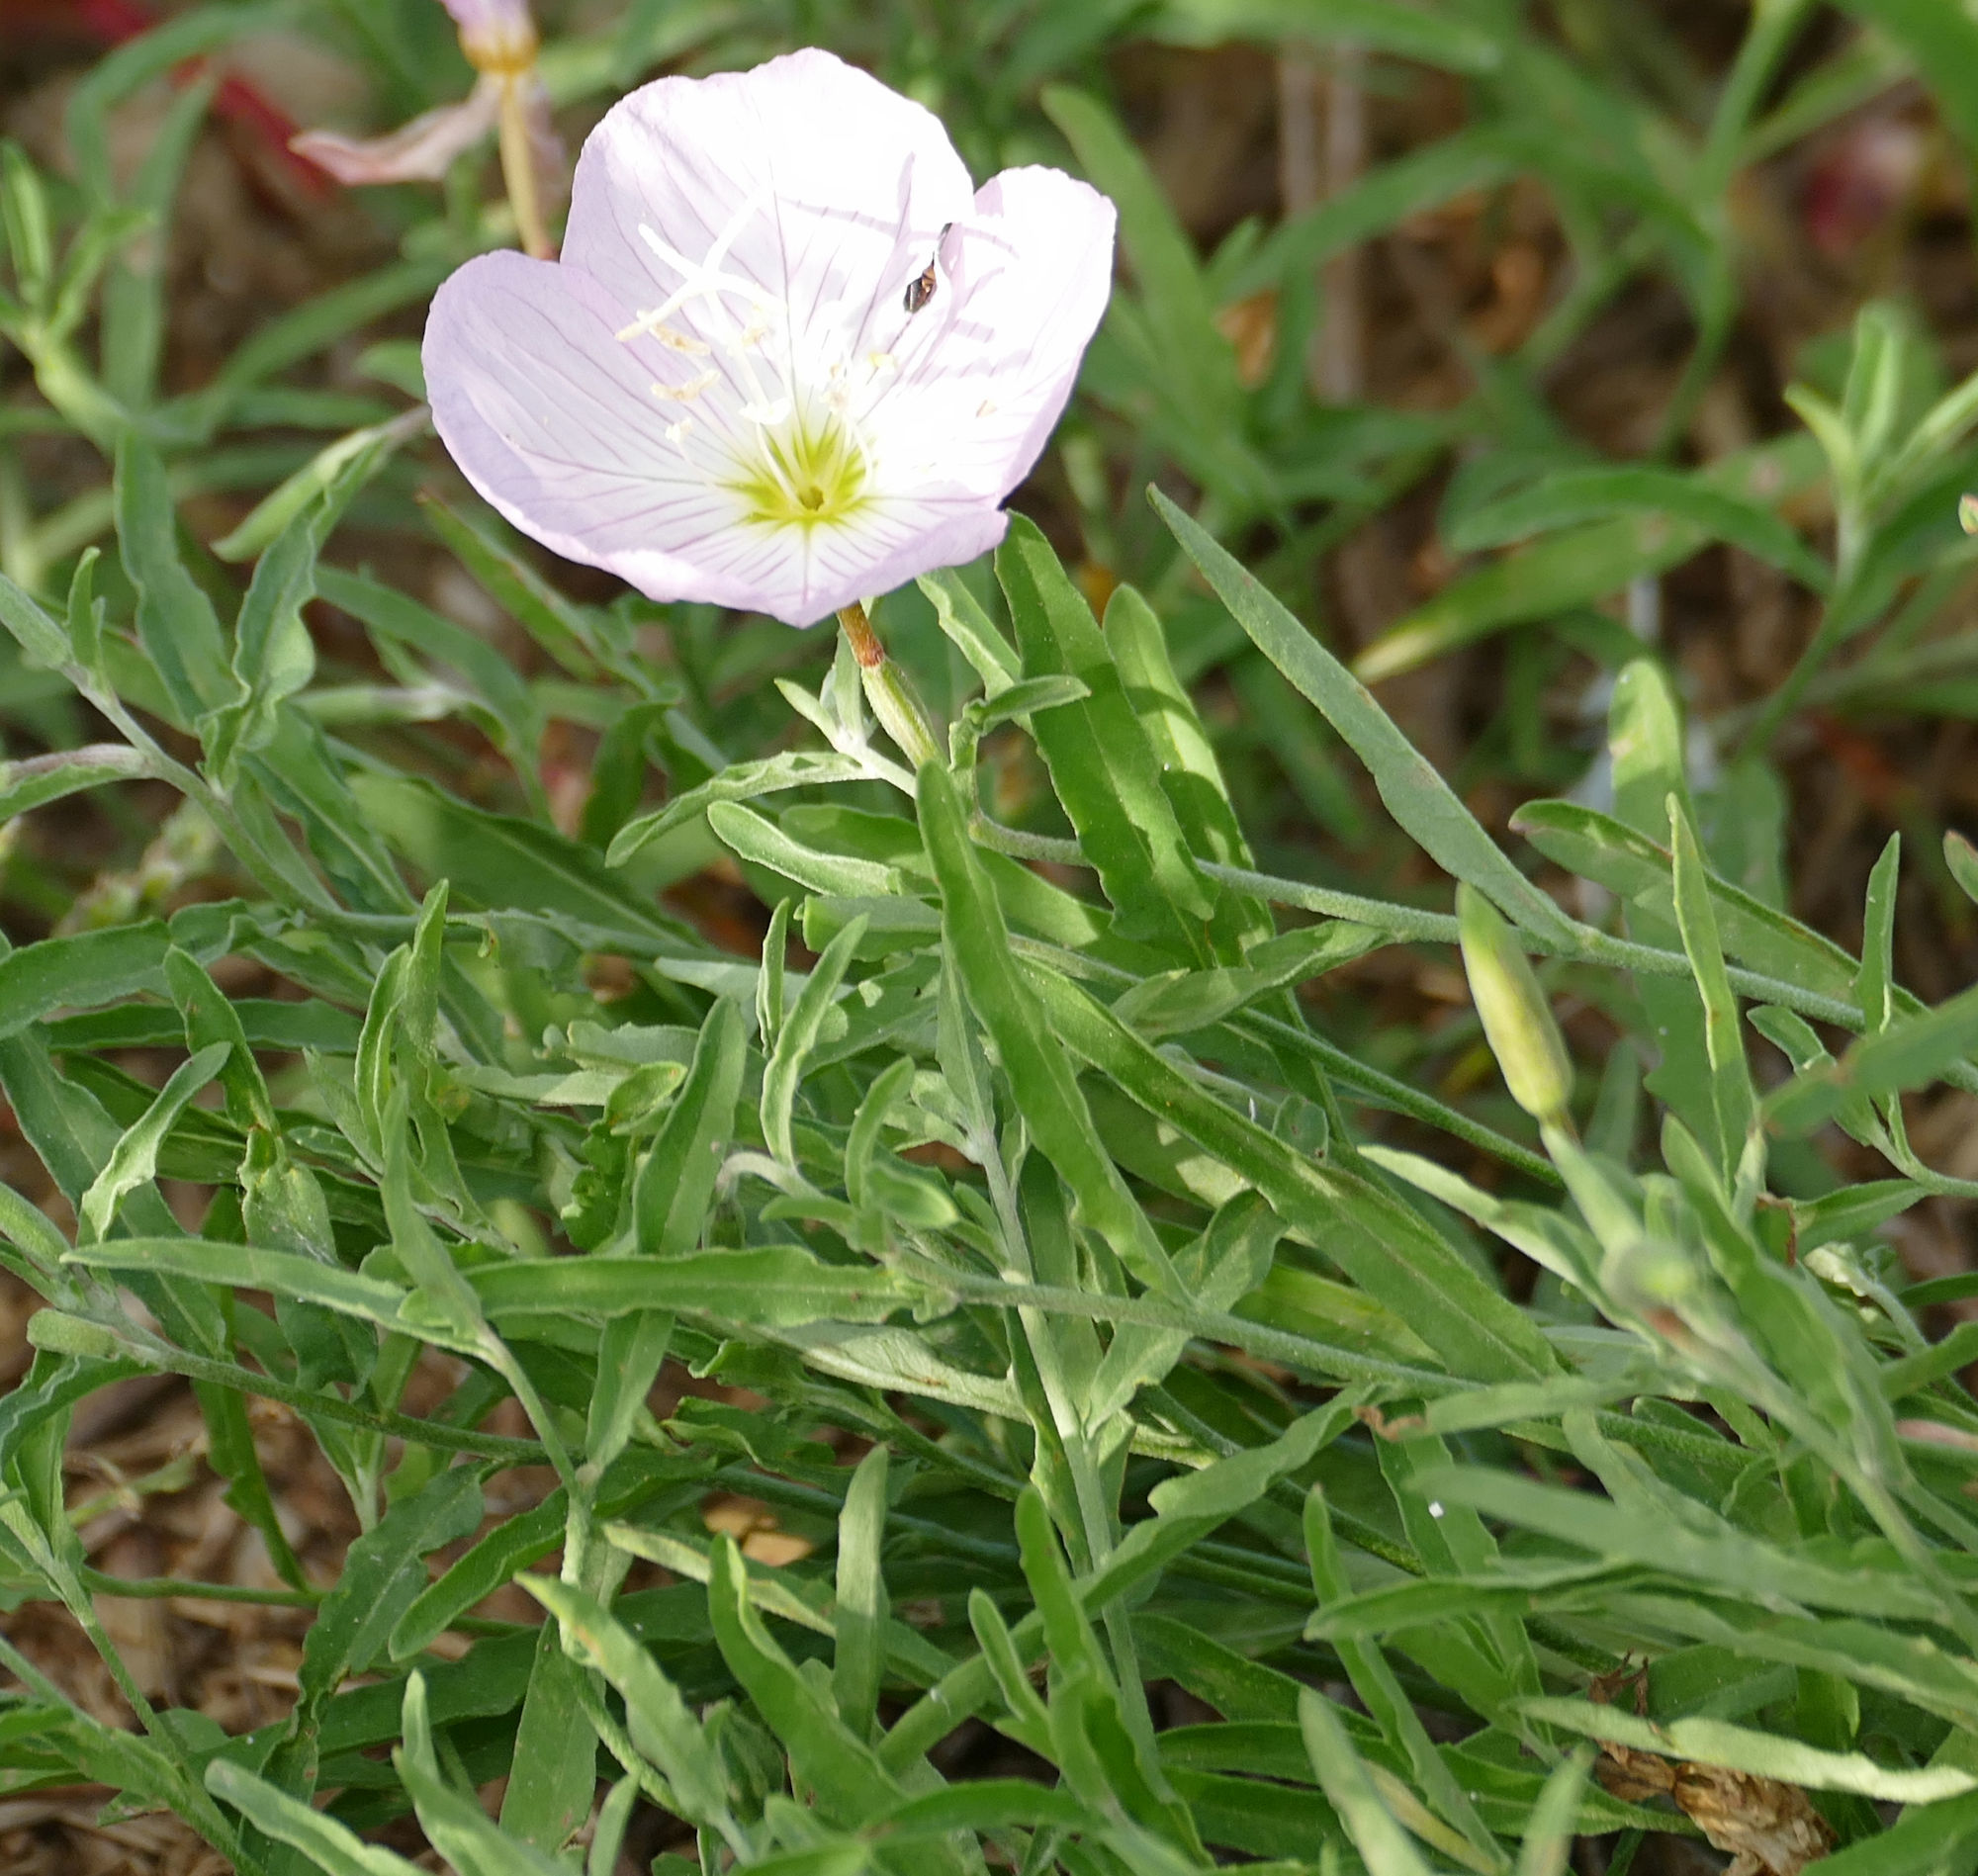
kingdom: Plantae
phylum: Tracheophyta
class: Magnoliopsida
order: Myrtales
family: Onagraceae
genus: Oenothera
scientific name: Oenothera speciosa
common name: White evening-primrose
